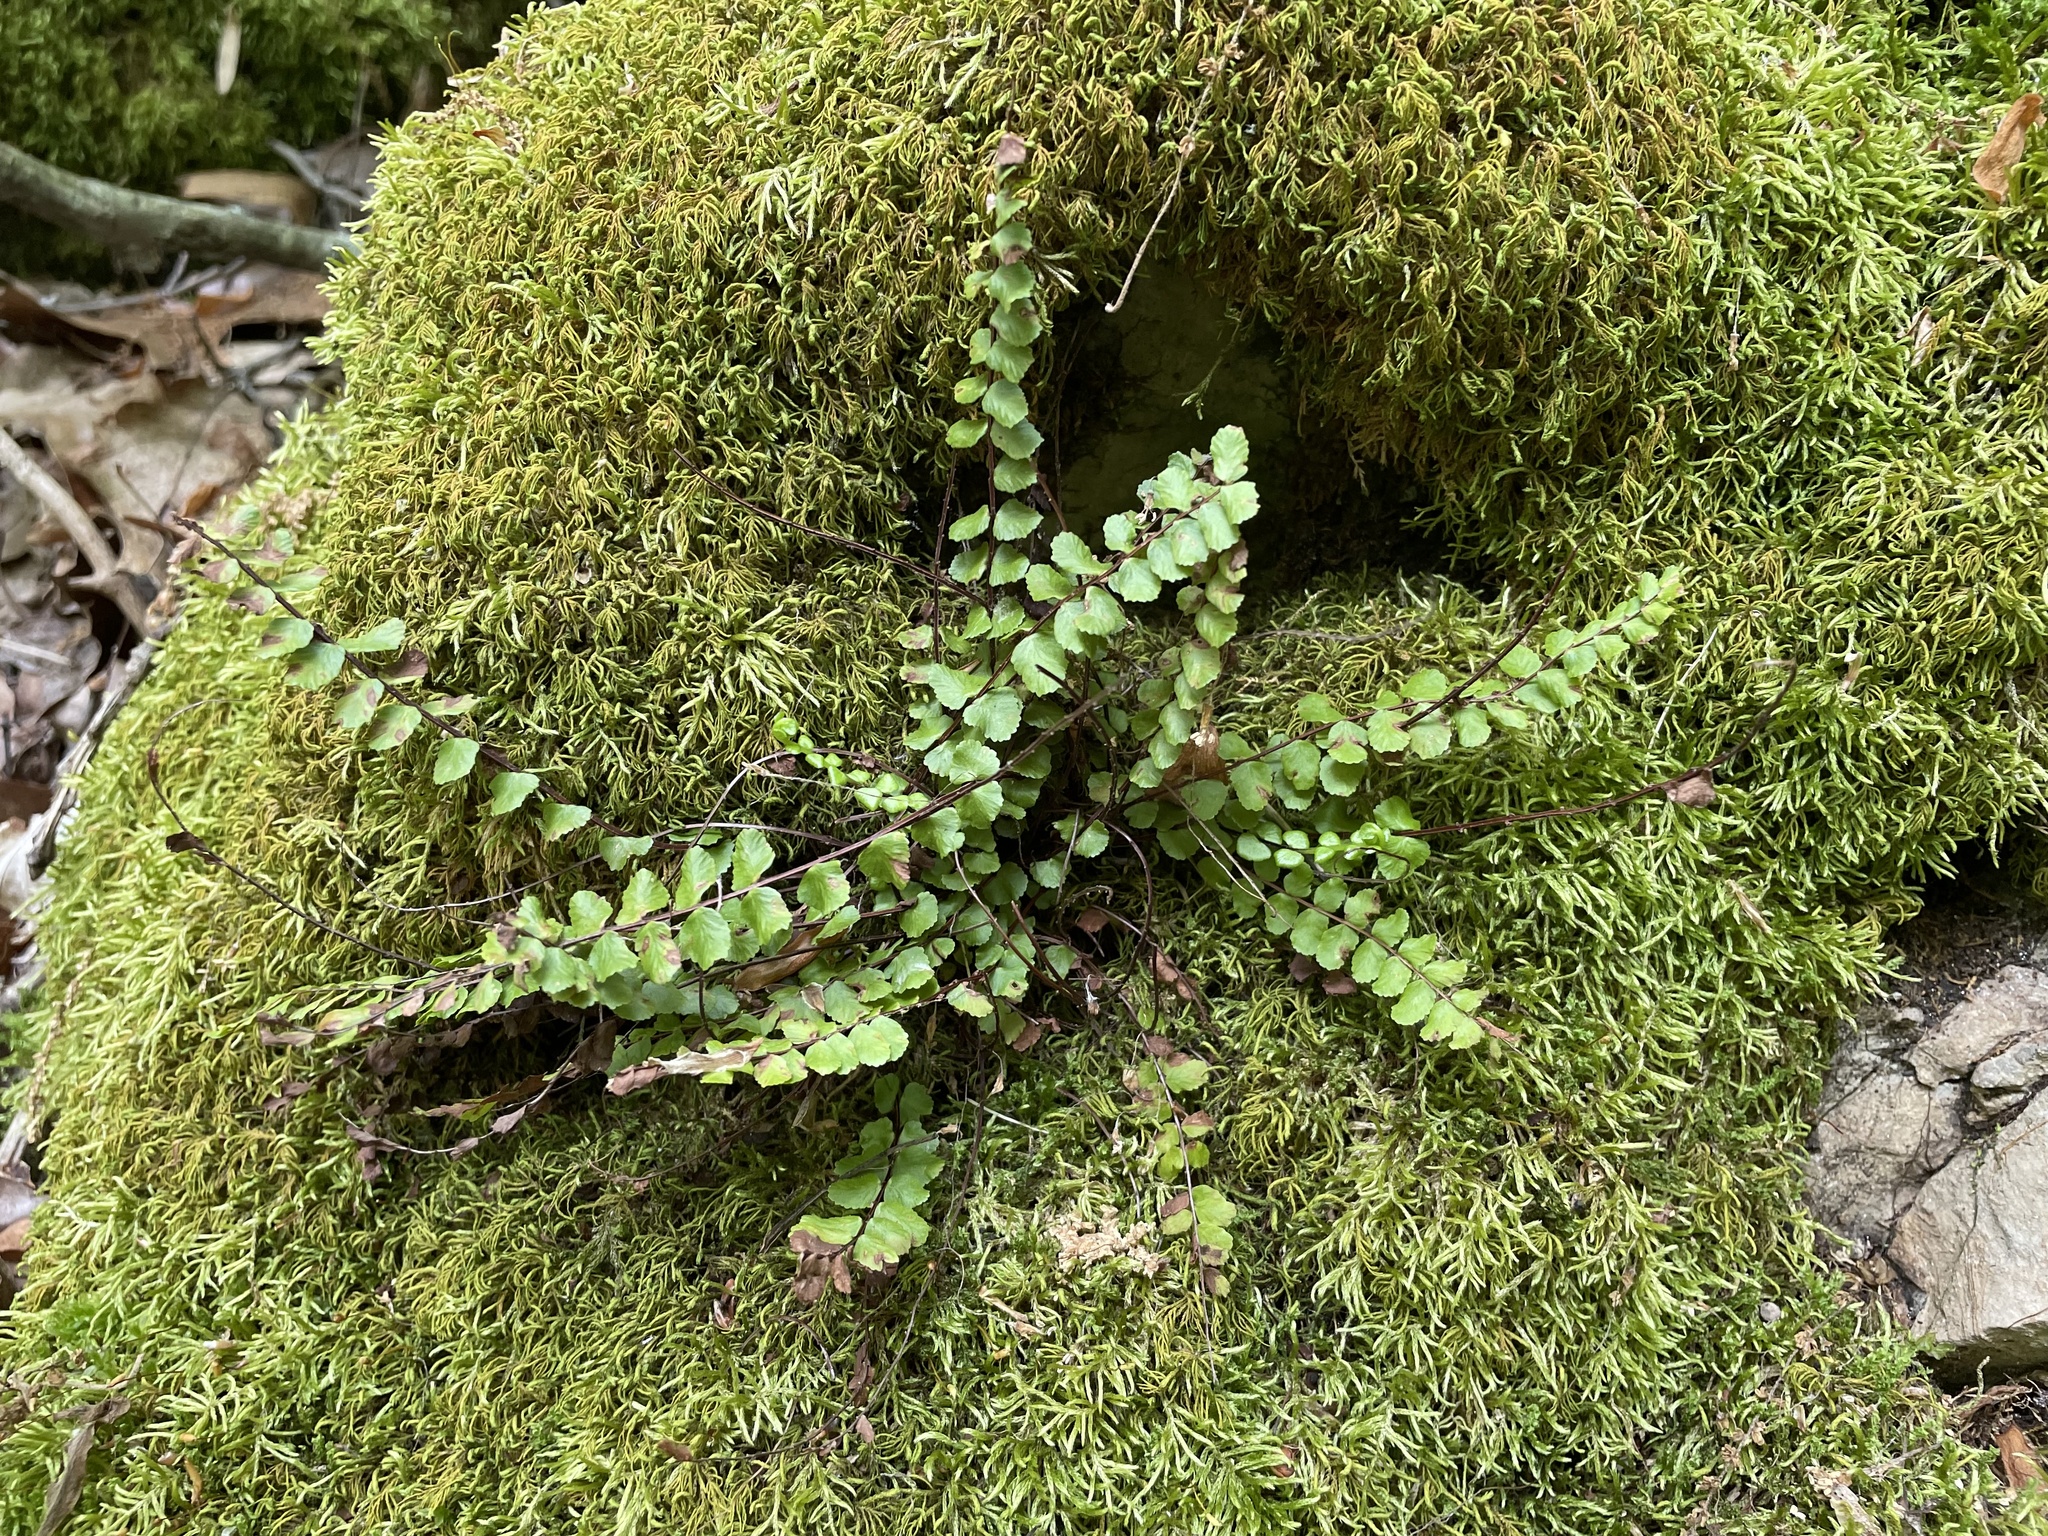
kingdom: Plantae
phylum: Tracheophyta
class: Polypodiopsida
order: Polypodiales
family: Aspleniaceae
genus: Asplenium
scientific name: Asplenium trichomanes
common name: Maidenhair spleenwort
